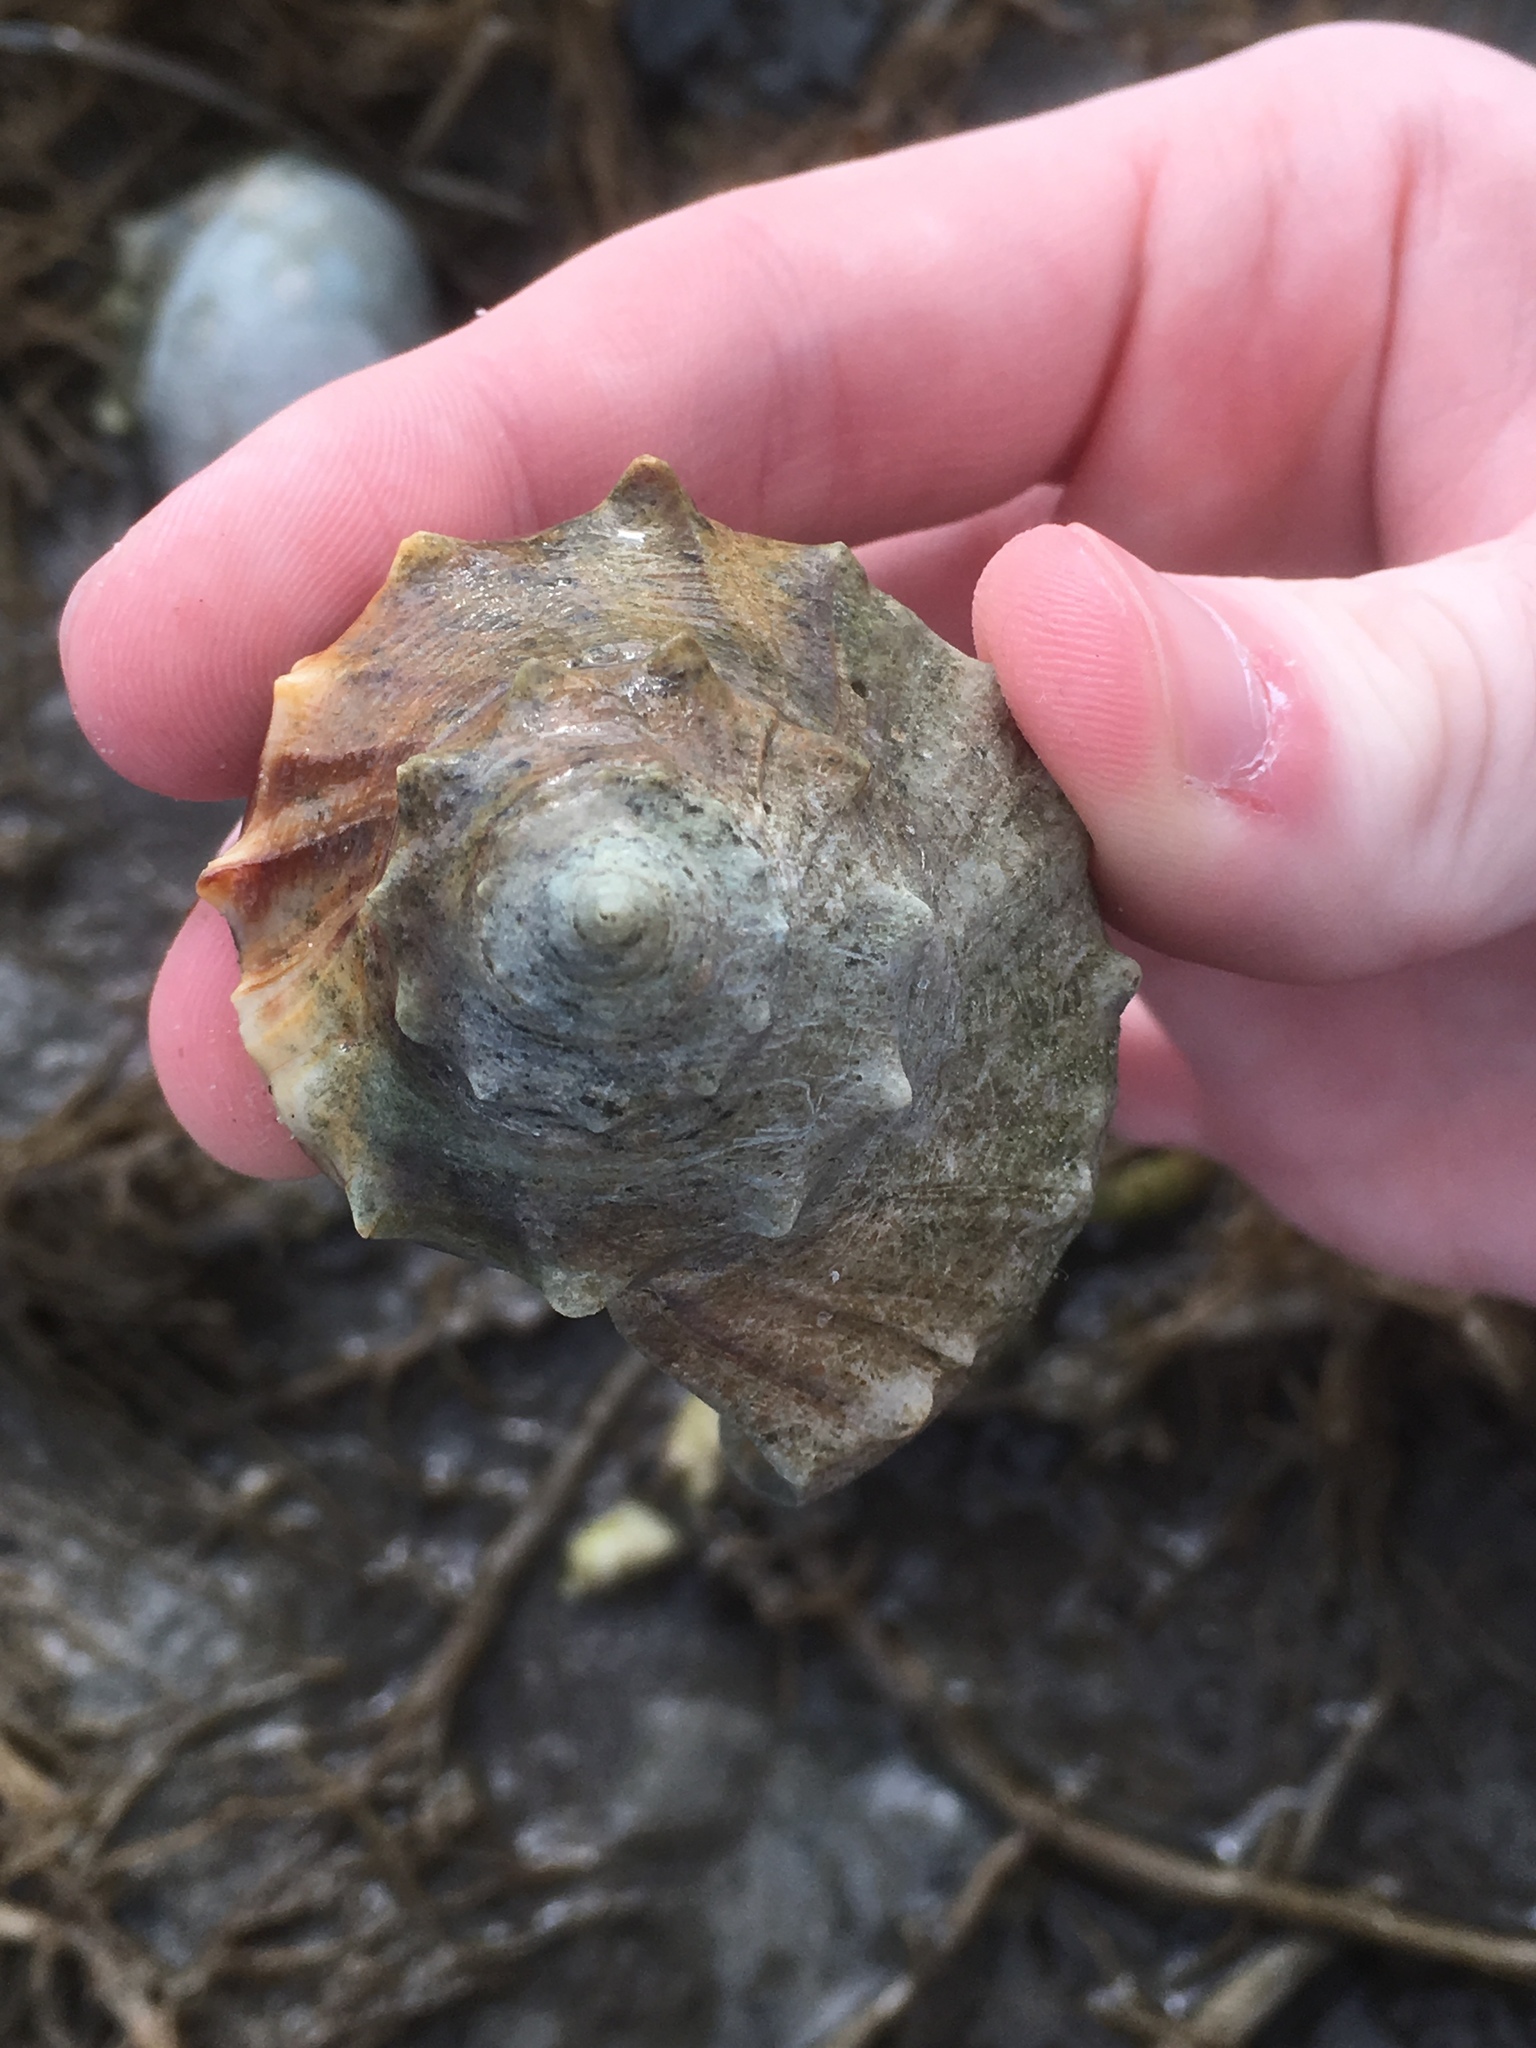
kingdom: Animalia
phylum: Mollusca
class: Gastropoda
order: Neogastropoda
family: Busyconidae
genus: Busycon
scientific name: Busycon carica
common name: Knobbed whelk
